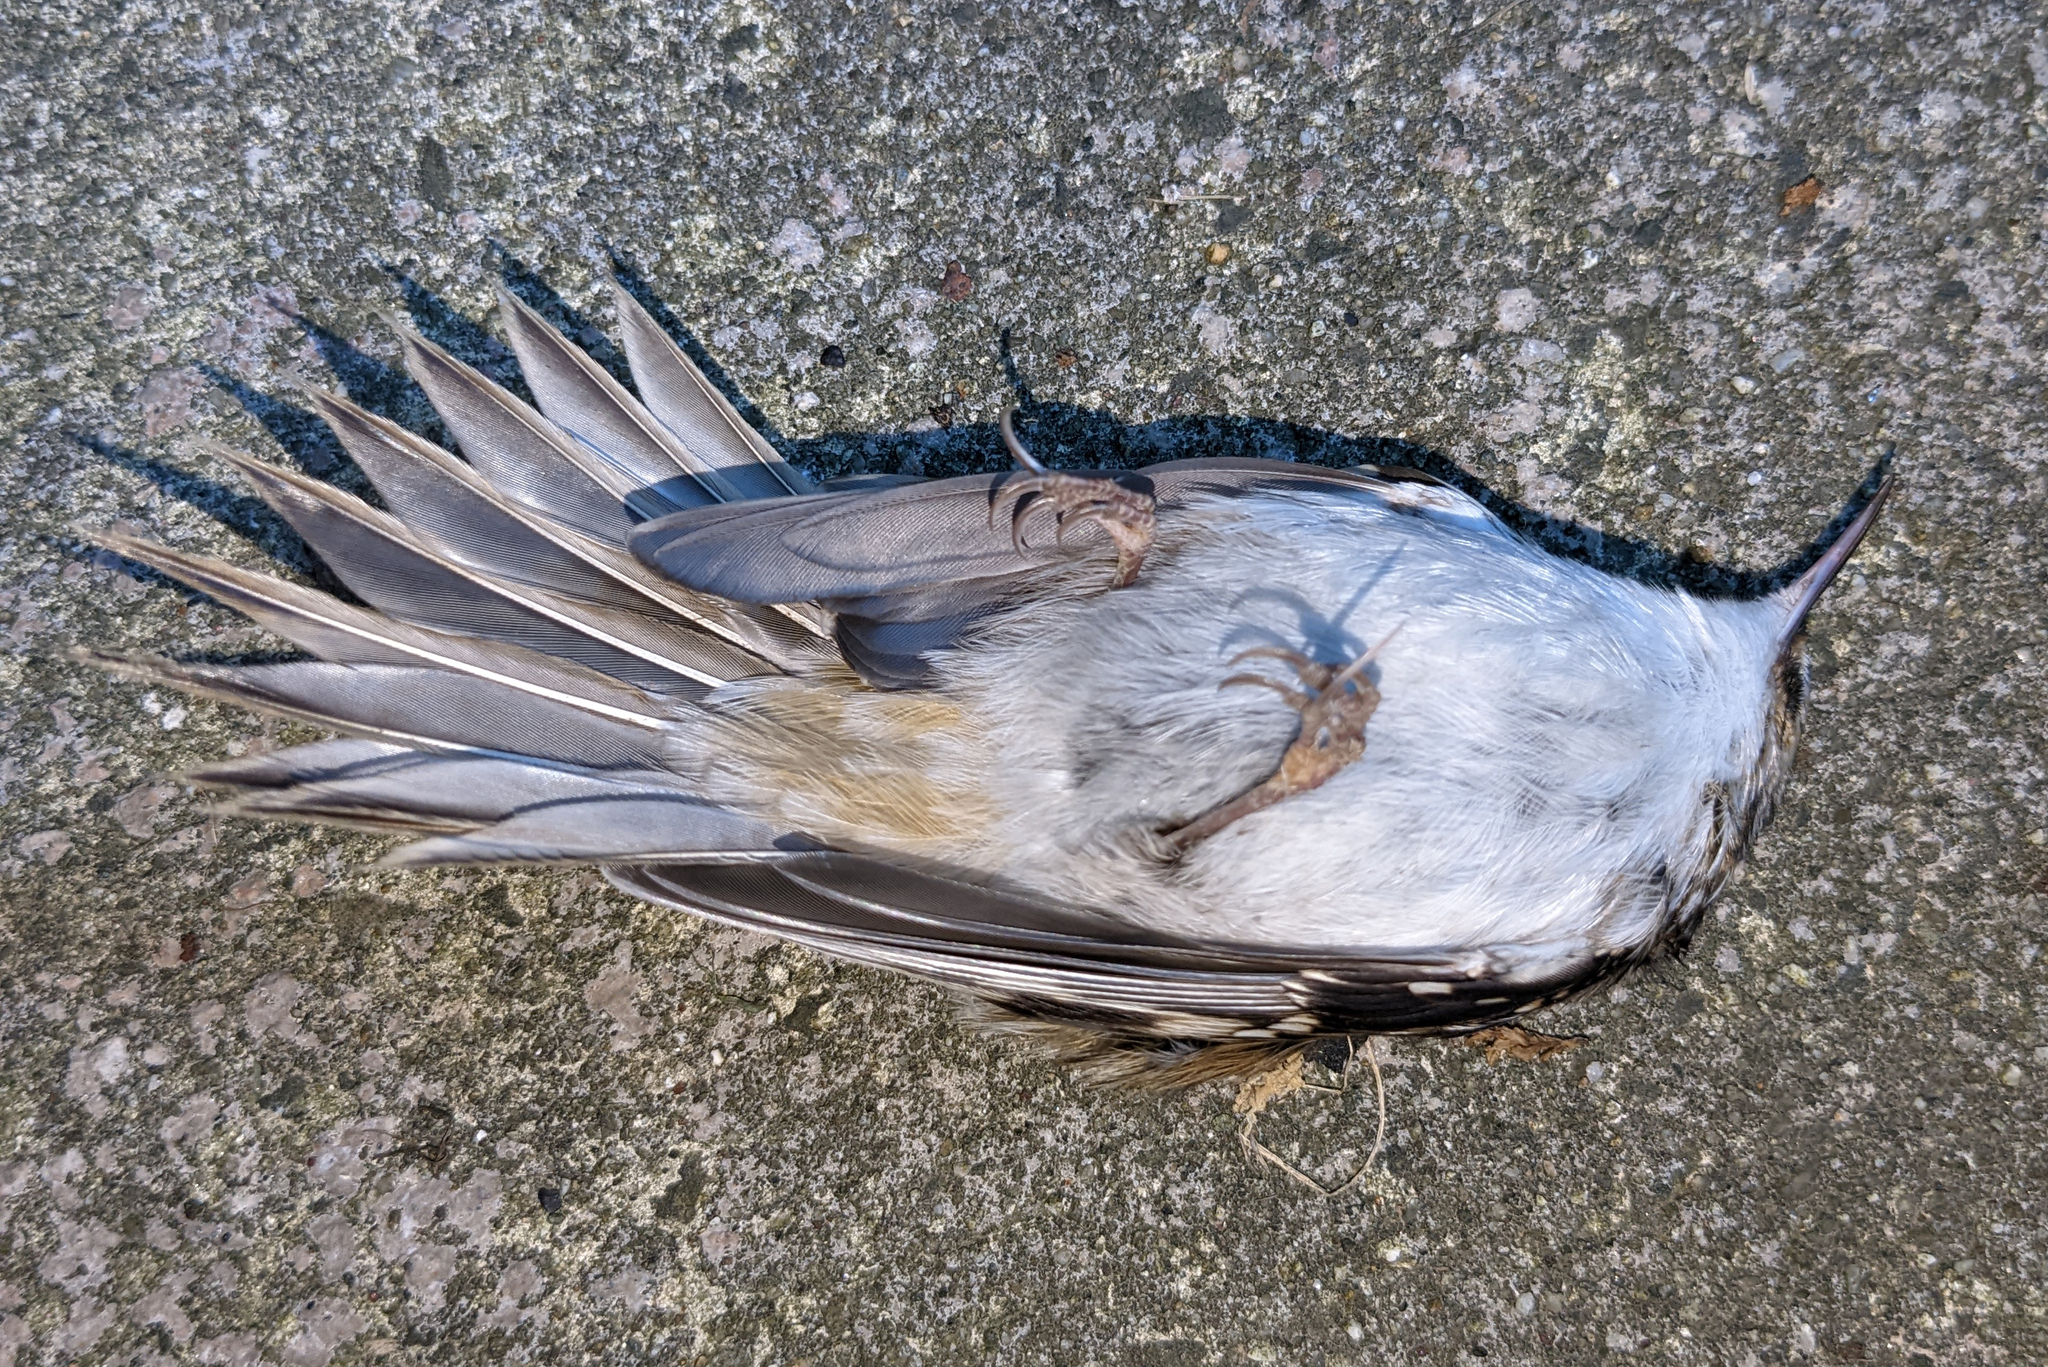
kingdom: Animalia
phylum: Chordata
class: Aves
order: Passeriformes
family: Certhiidae
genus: Certhia
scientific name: Certhia americana
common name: Brown creeper
